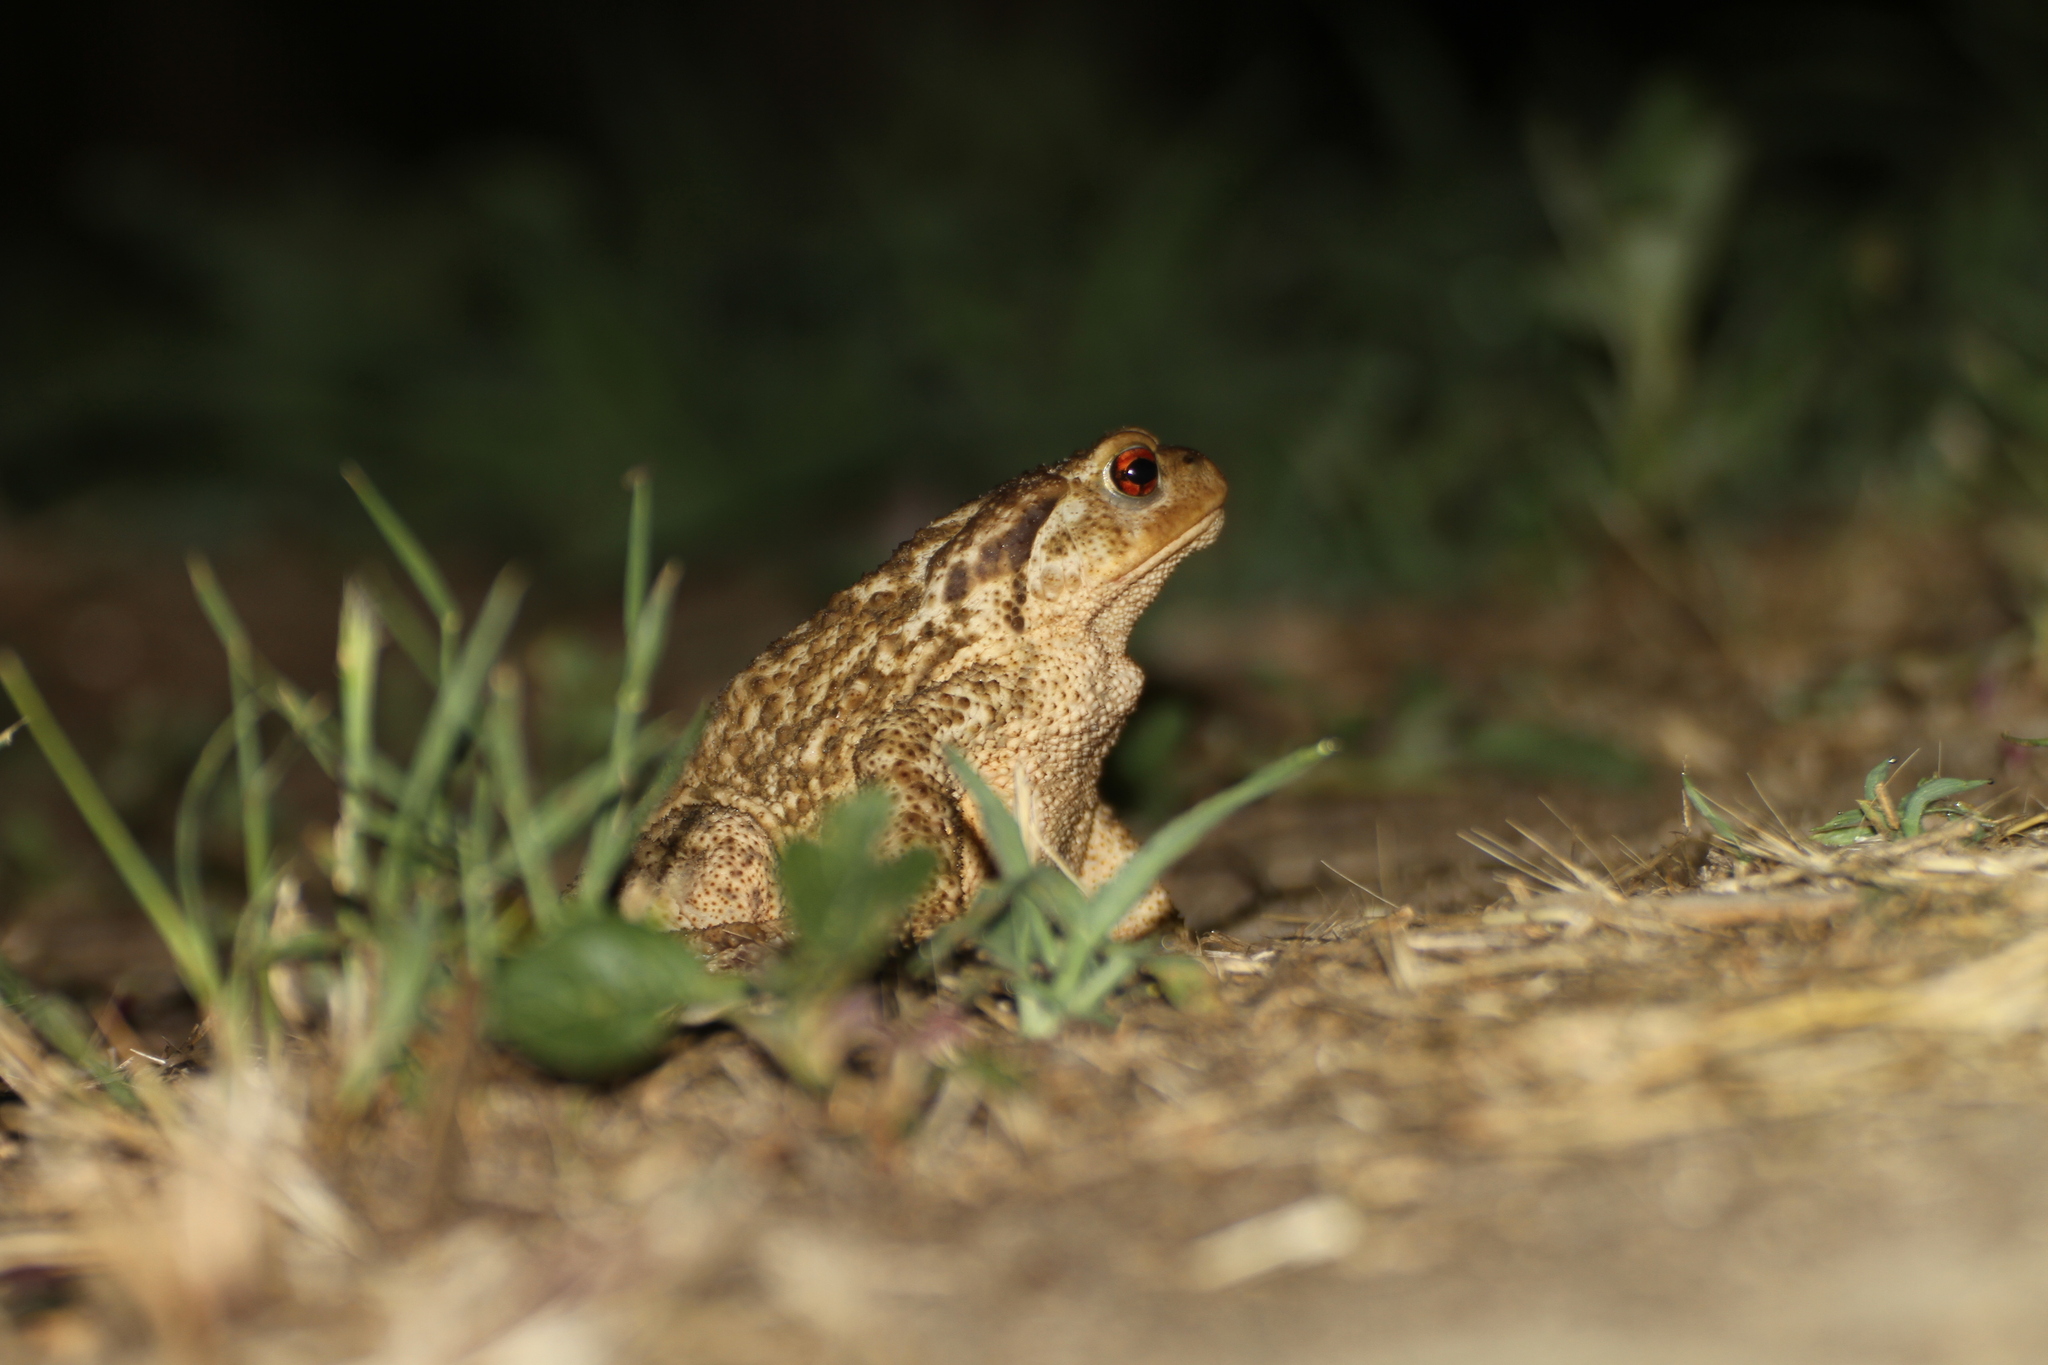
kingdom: Animalia
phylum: Chordata
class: Amphibia
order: Anura
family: Bufonidae
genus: Bufo
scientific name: Bufo spinosus
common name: Western common toad
